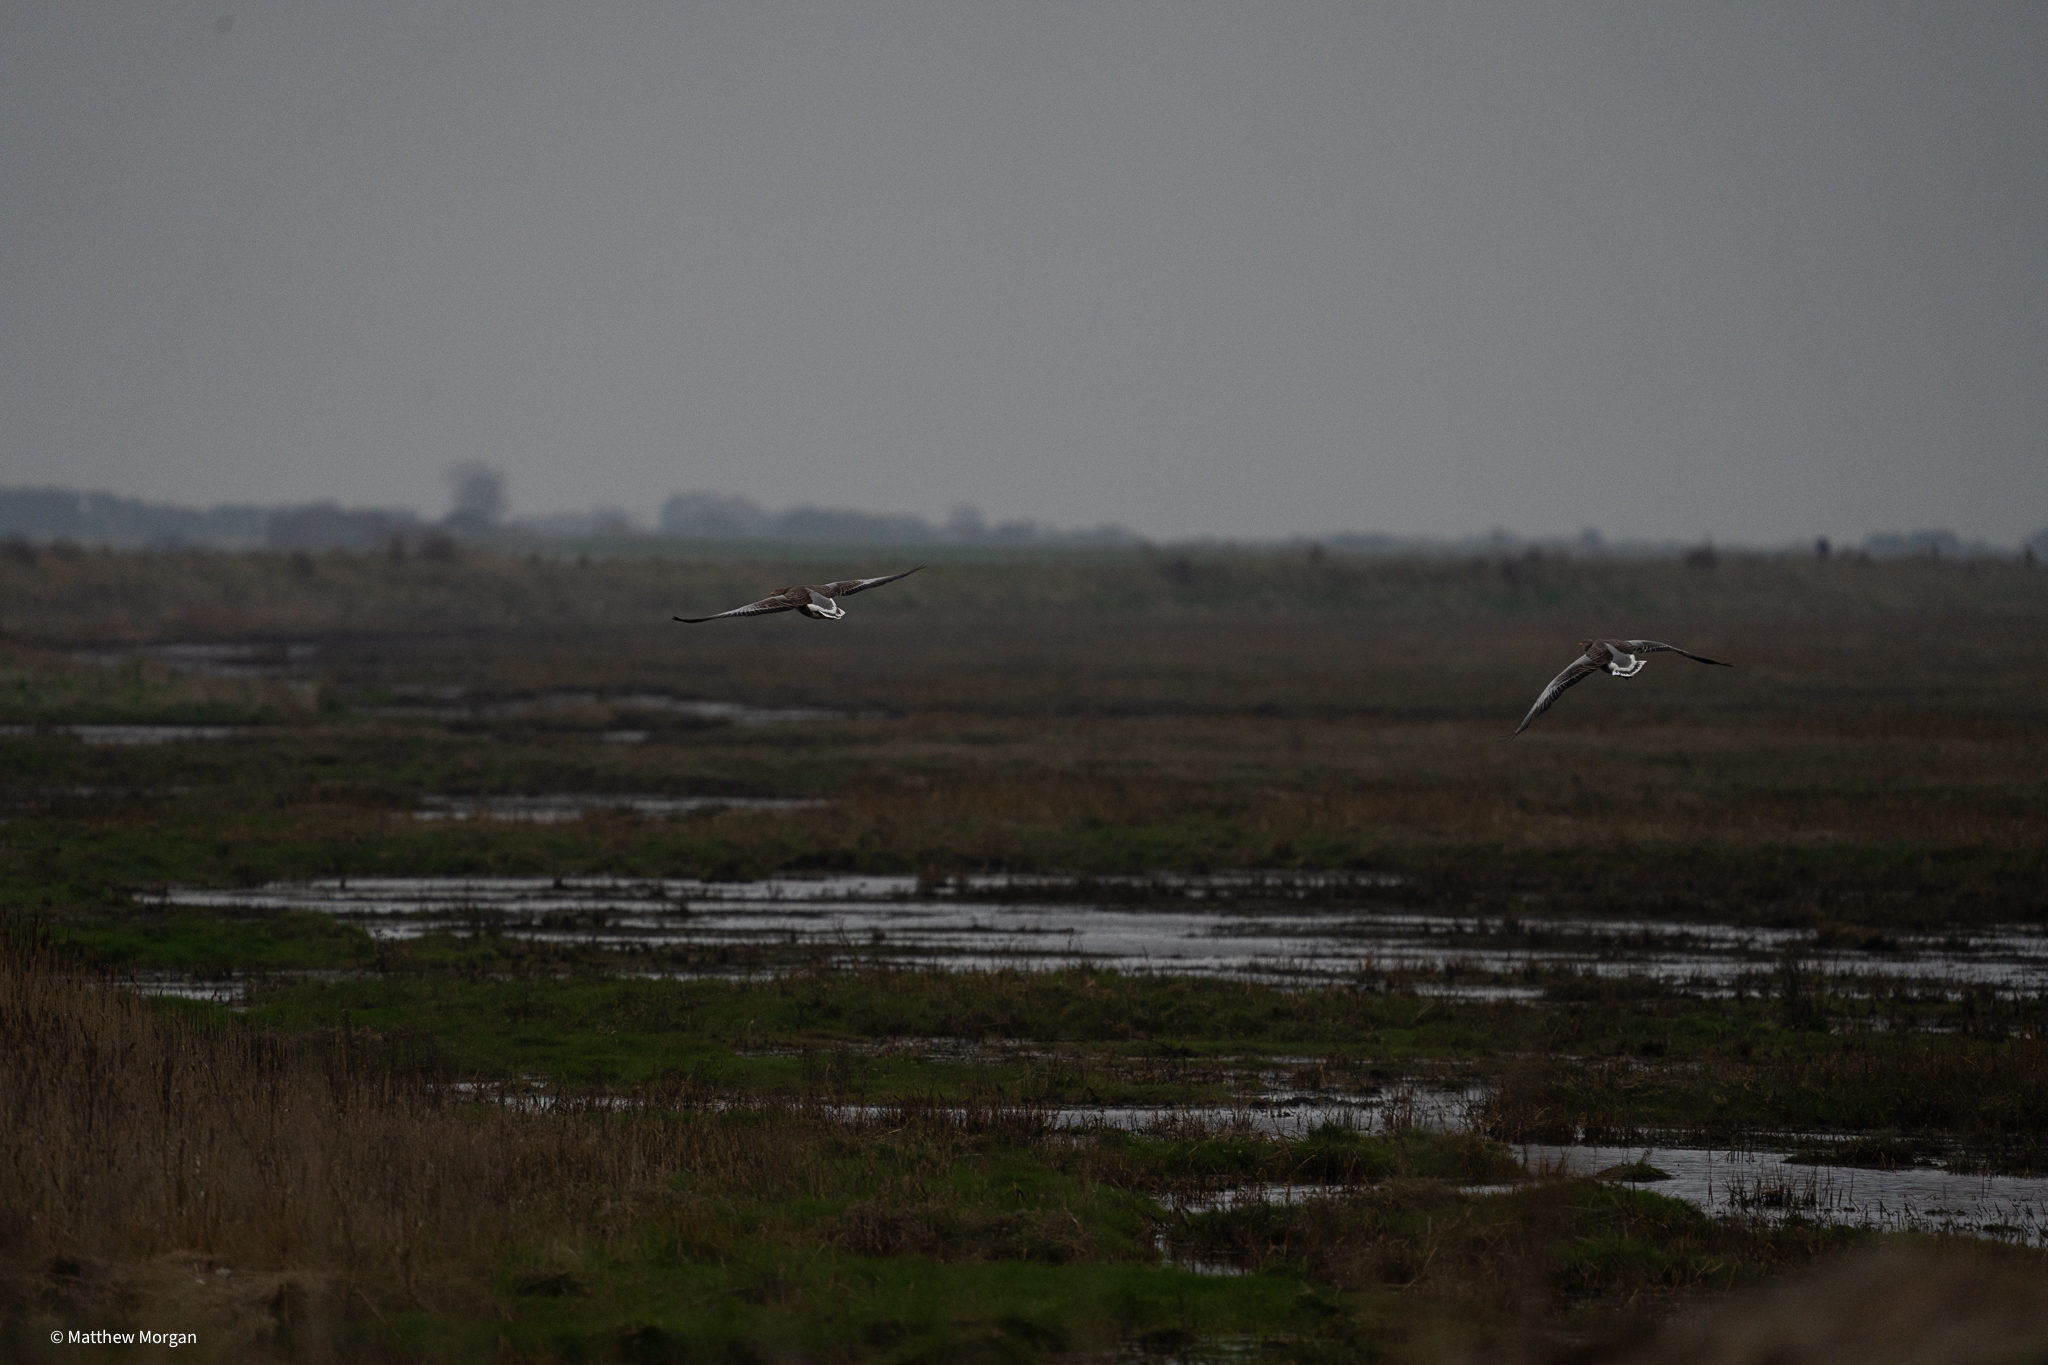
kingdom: Animalia
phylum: Chordata
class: Aves
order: Anseriformes
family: Anatidae
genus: Anser
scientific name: Anser anser
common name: Greylag goose
